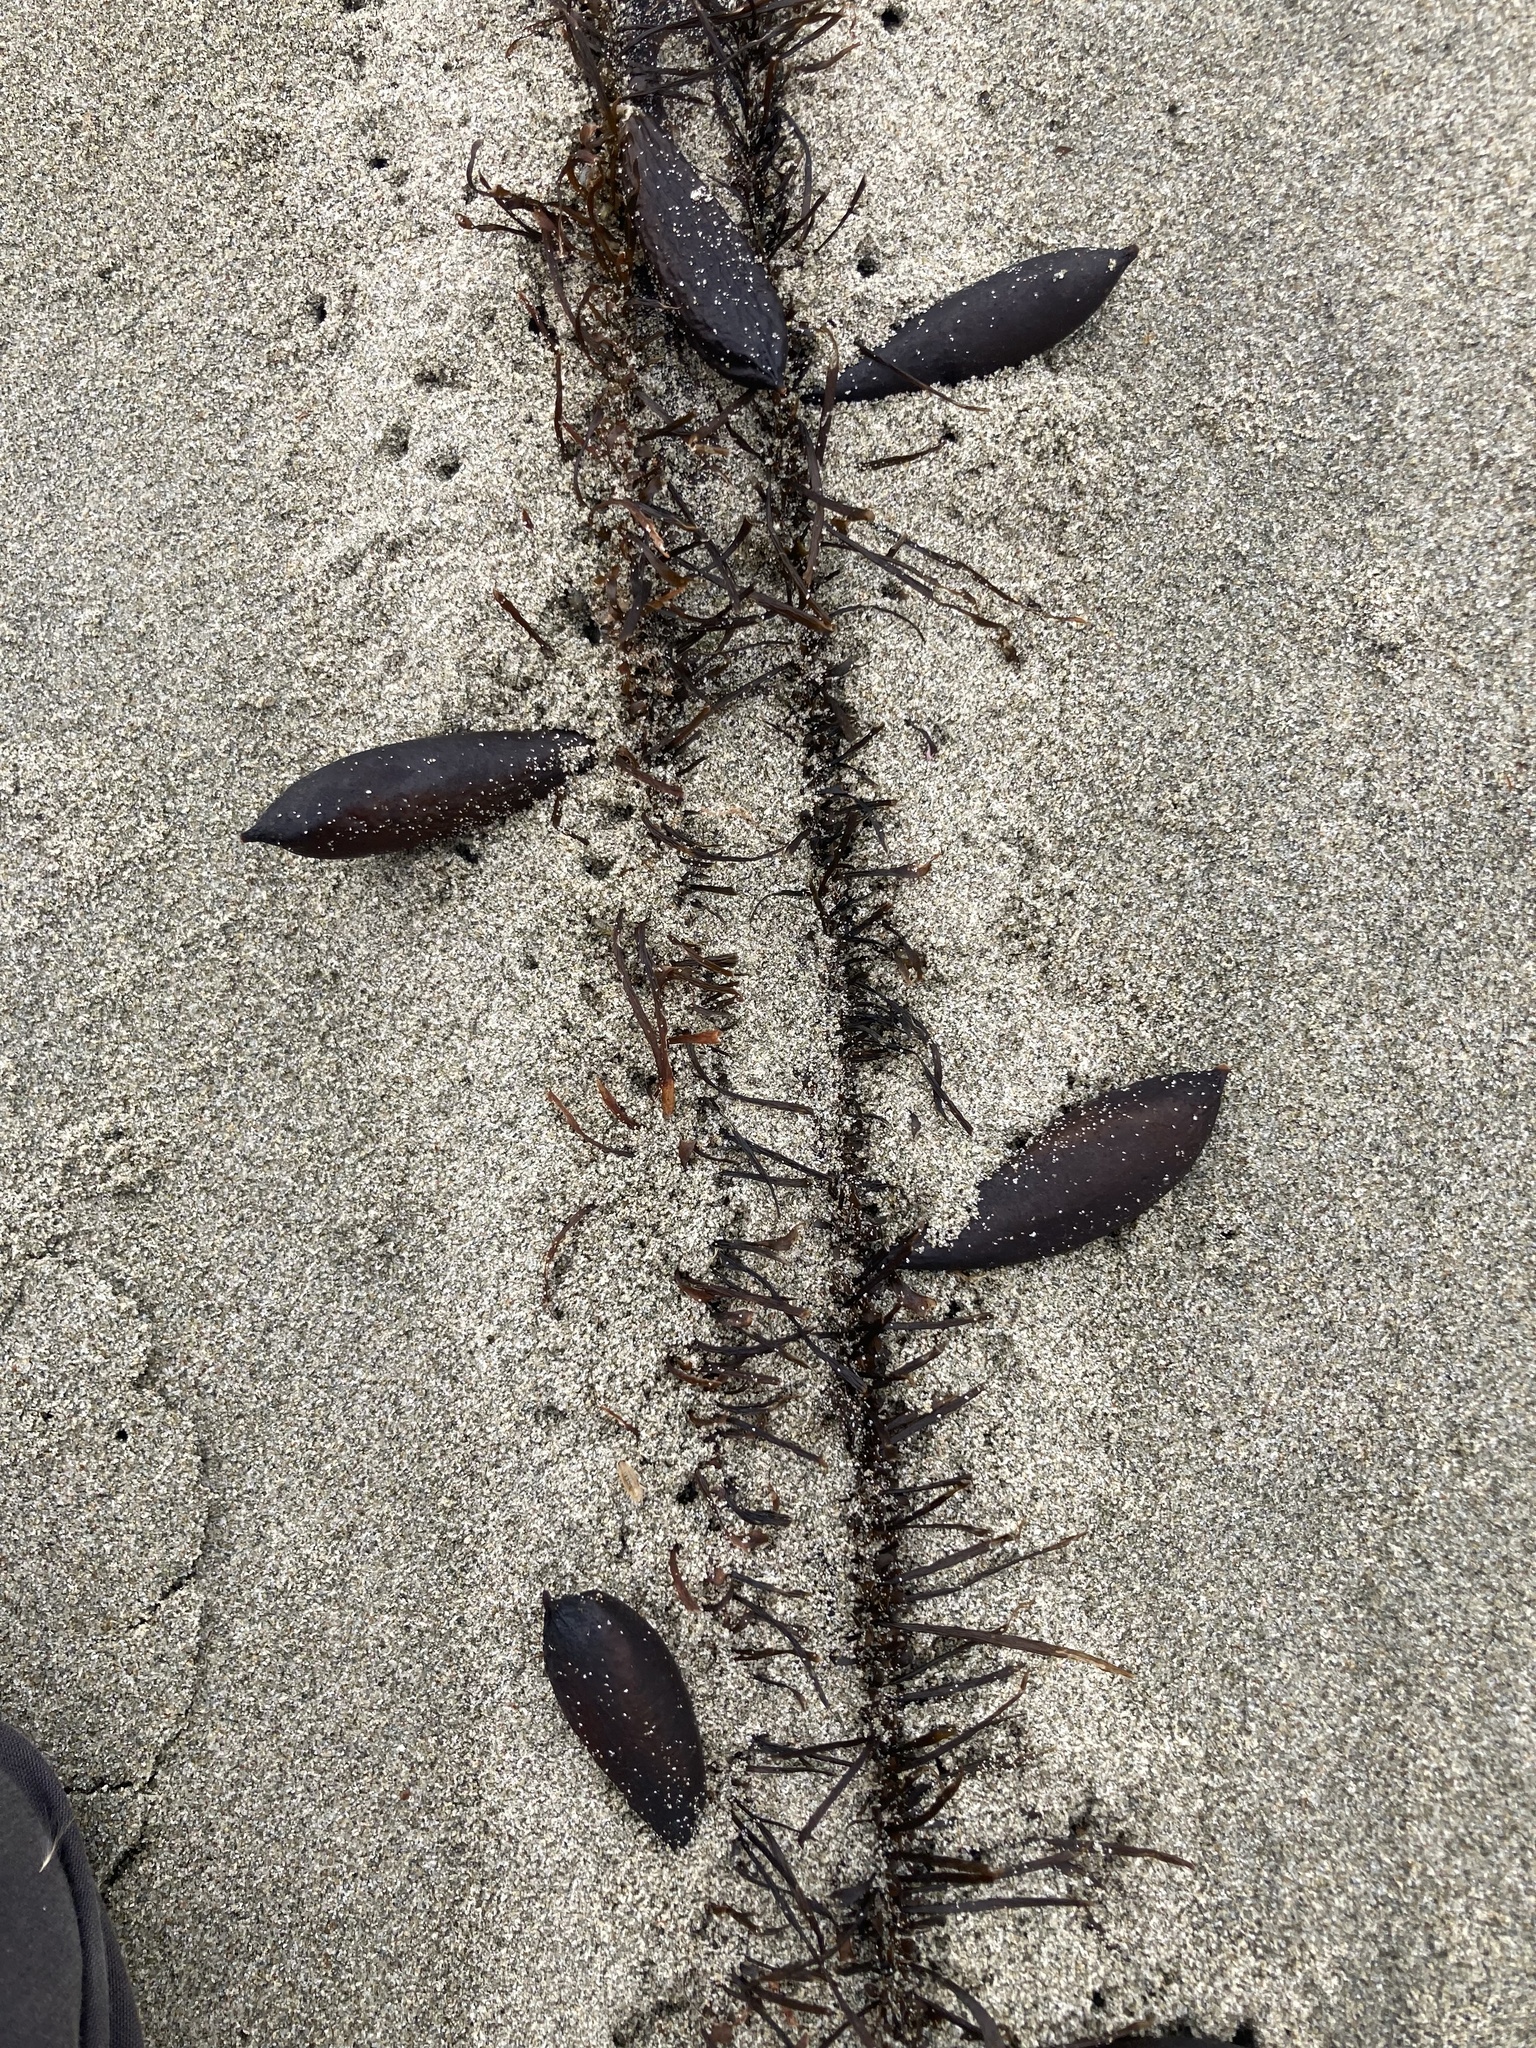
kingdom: Chromista
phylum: Ochrophyta
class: Phaeophyceae
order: Laminariales
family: Lessoniaceae
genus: Egregia
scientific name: Egregia menziesii
